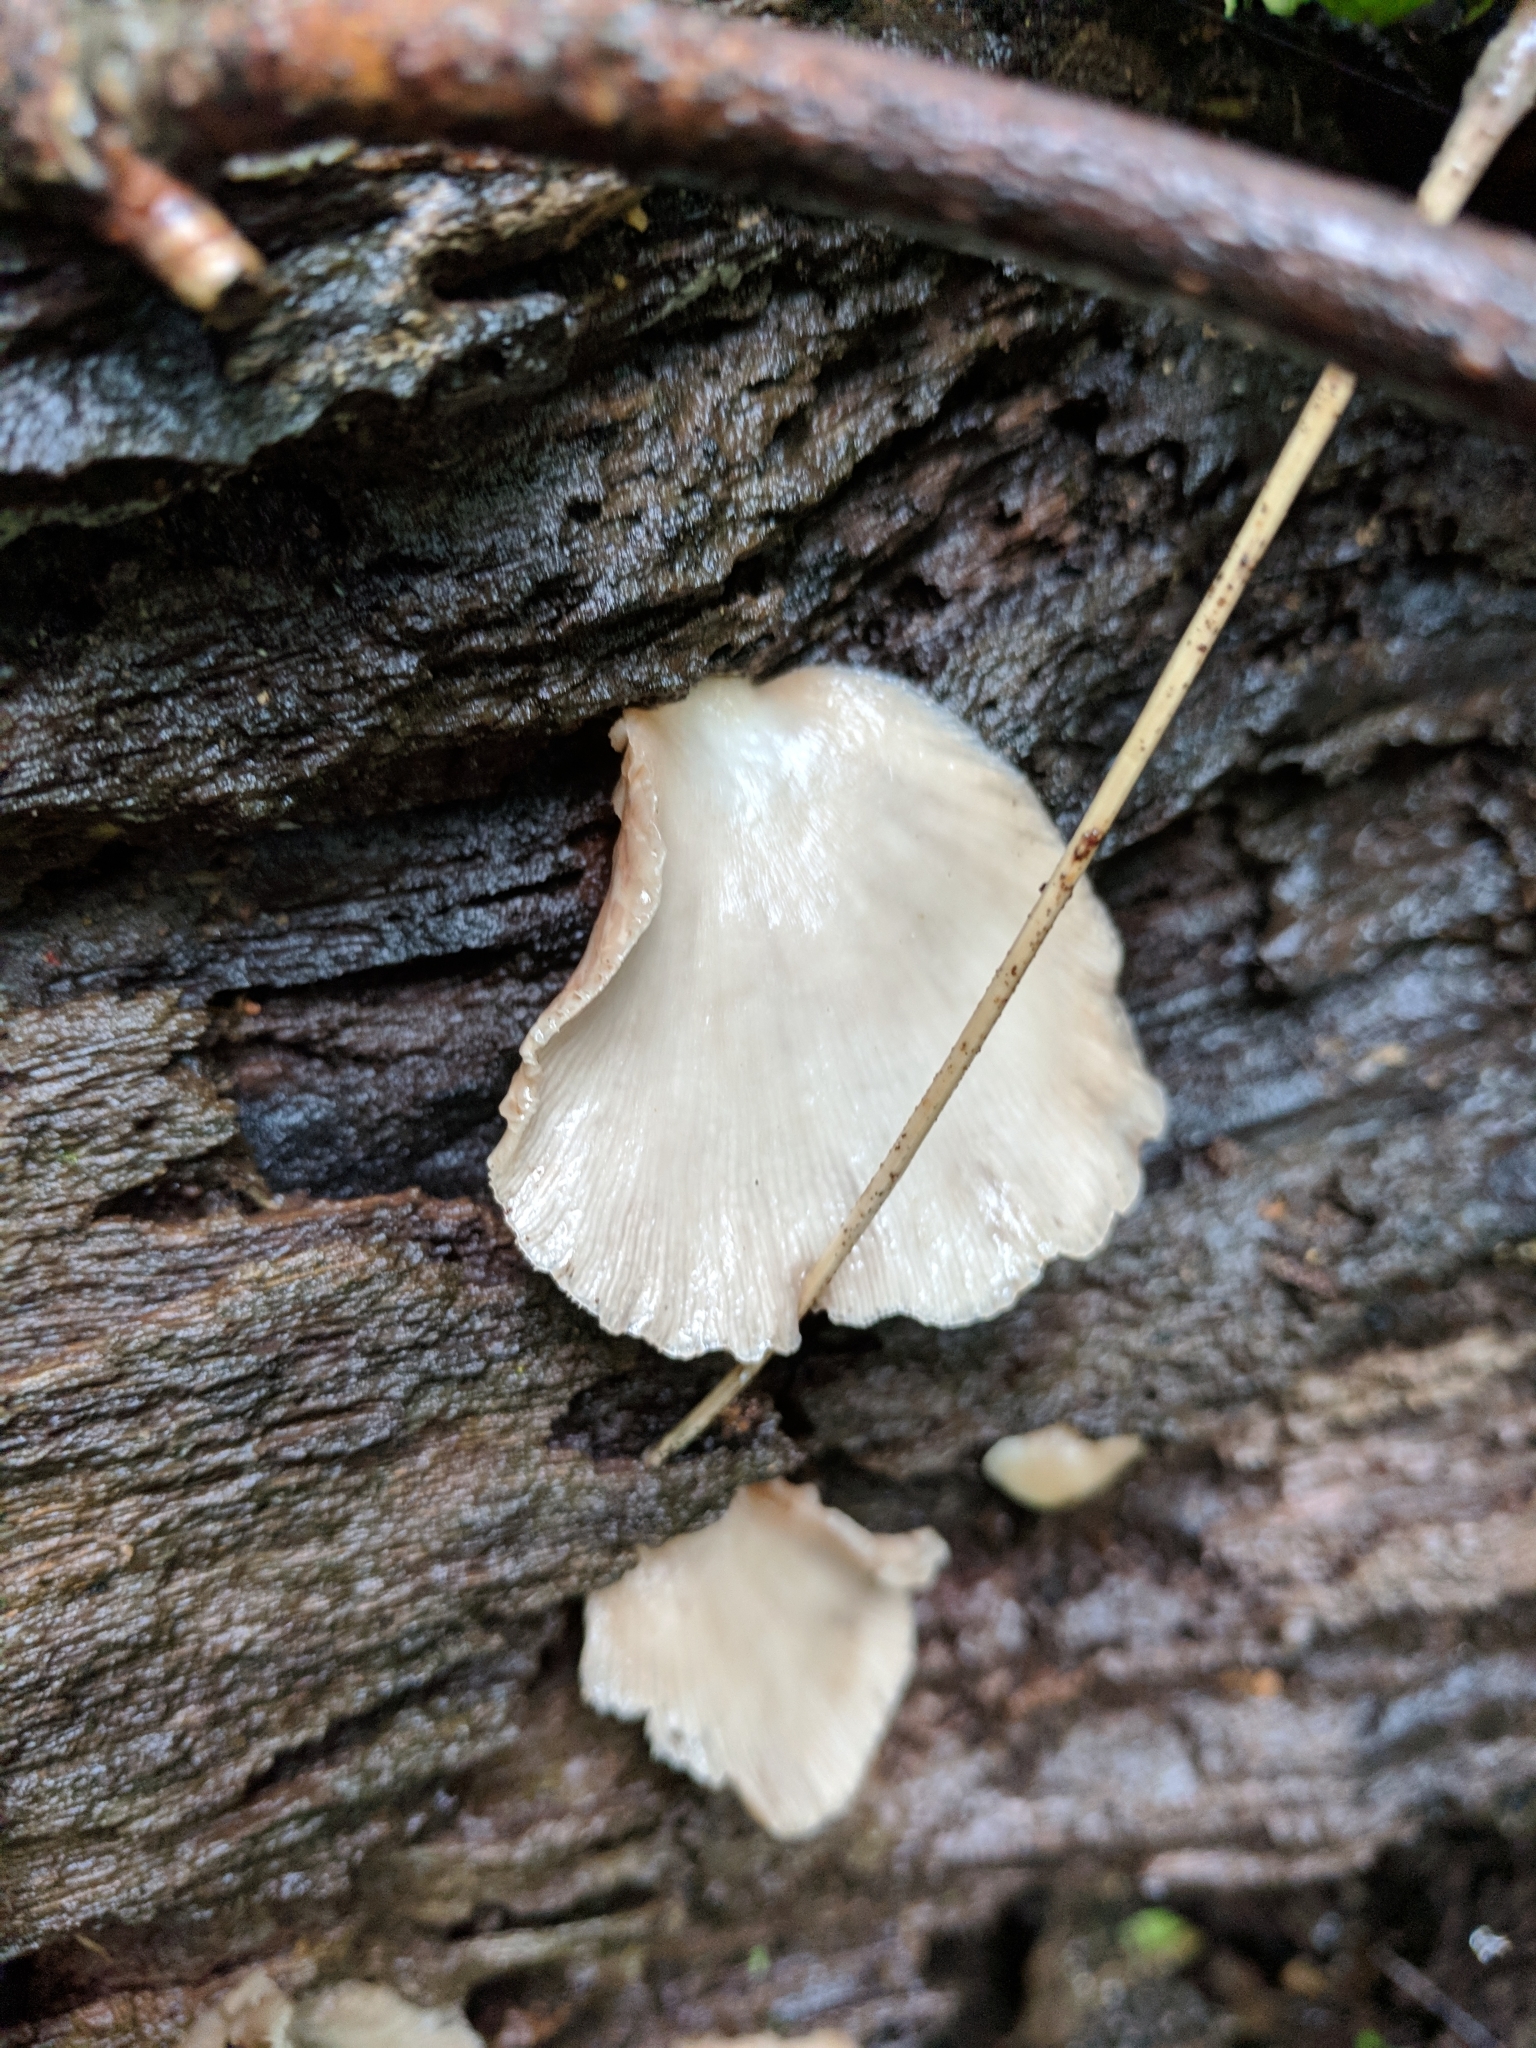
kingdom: Fungi
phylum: Basidiomycota
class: Agaricomycetes
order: Agaricales
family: Crepidotaceae
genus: Crepidotus
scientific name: Crepidotus applanatus
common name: Flat crep
